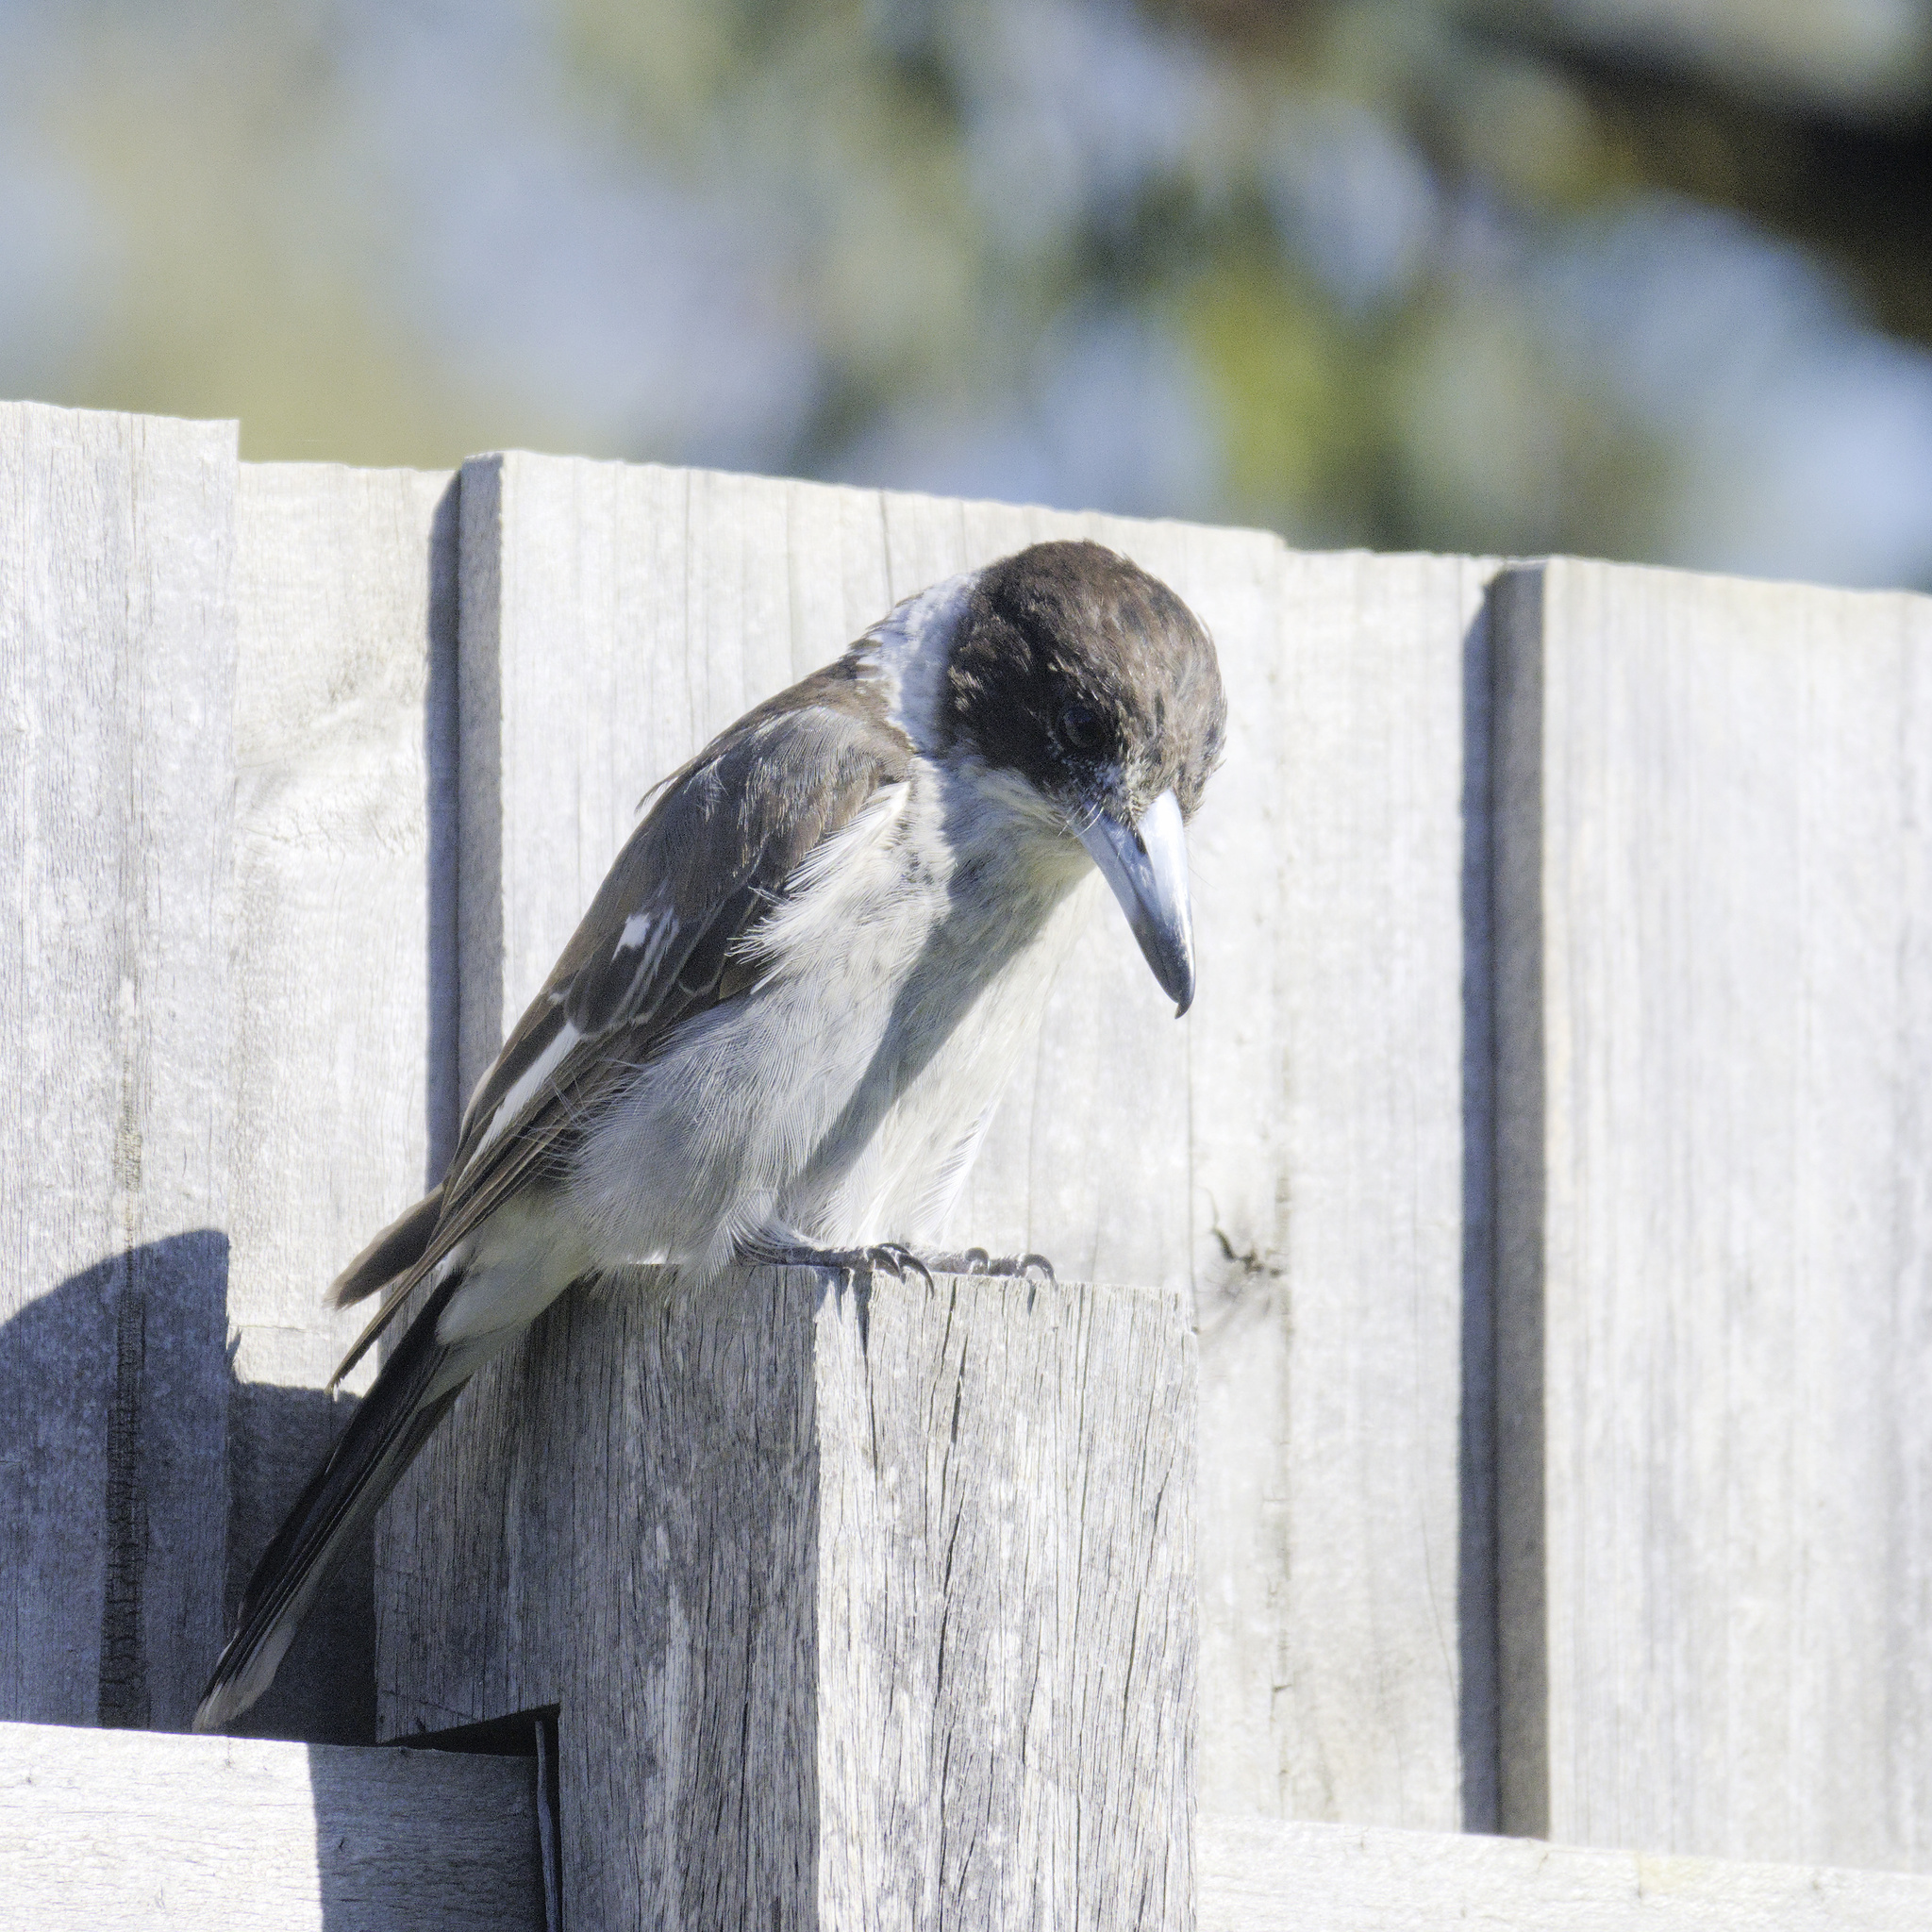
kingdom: Animalia
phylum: Chordata
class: Aves
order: Passeriformes
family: Cracticidae
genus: Cracticus
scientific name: Cracticus torquatus
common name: Grey butcherbird
